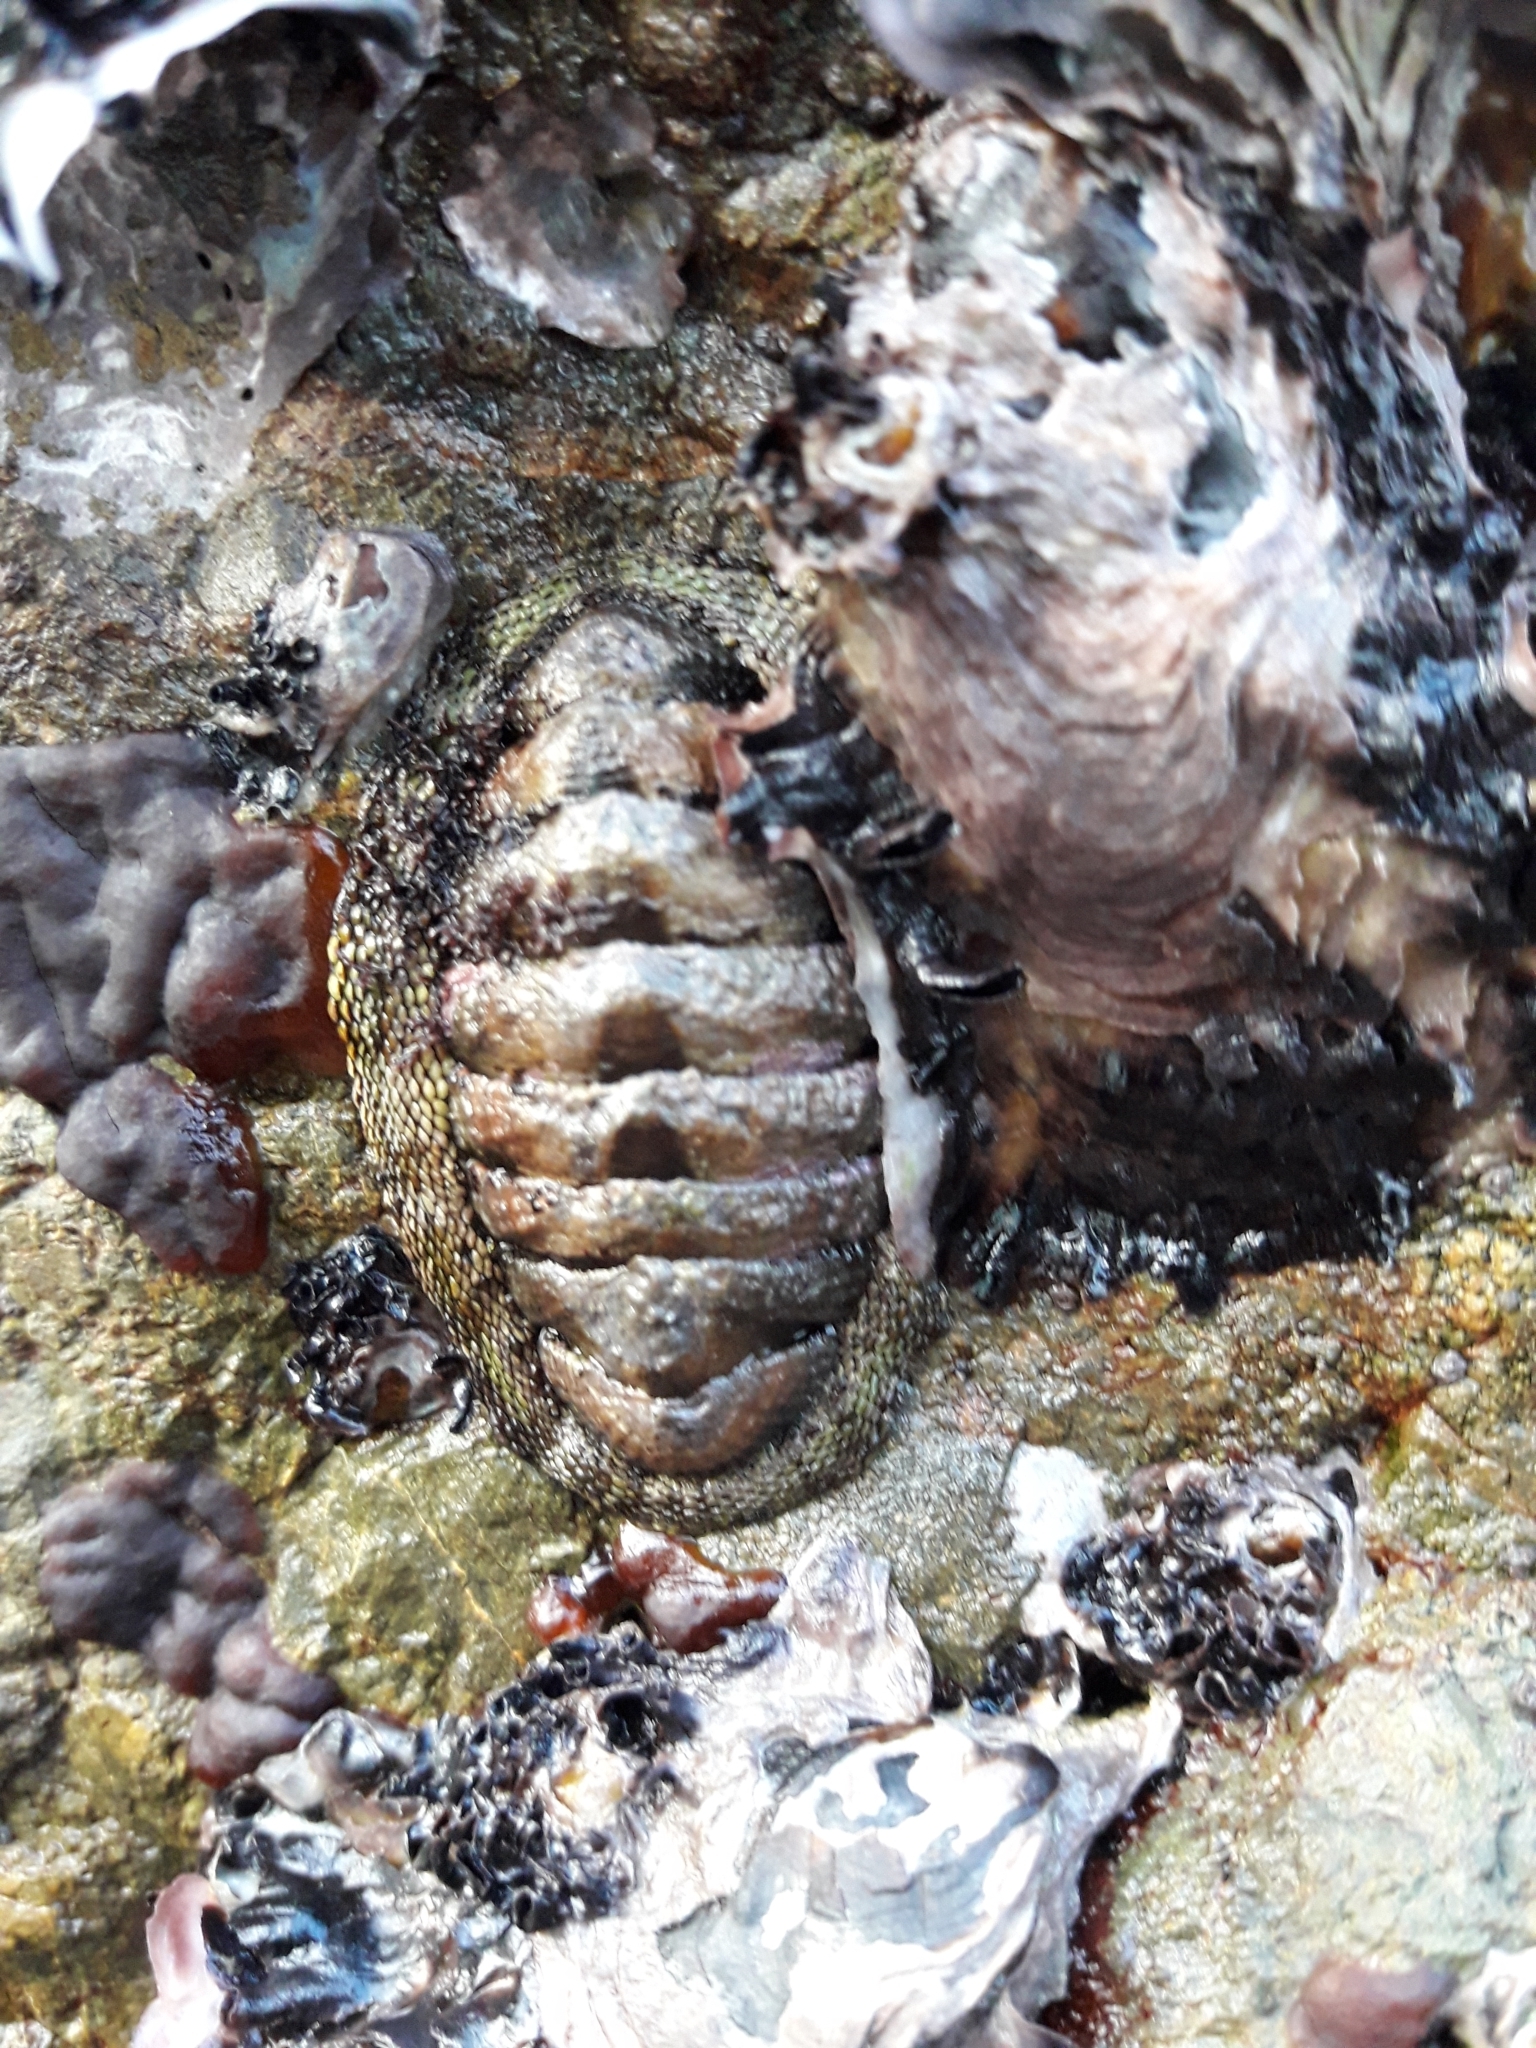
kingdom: Animalia
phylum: Mollusca
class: Polyplacophora
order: Chitonida
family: Chitonidae
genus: Sypharochiton
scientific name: Sypharochiton pelliserpentis
